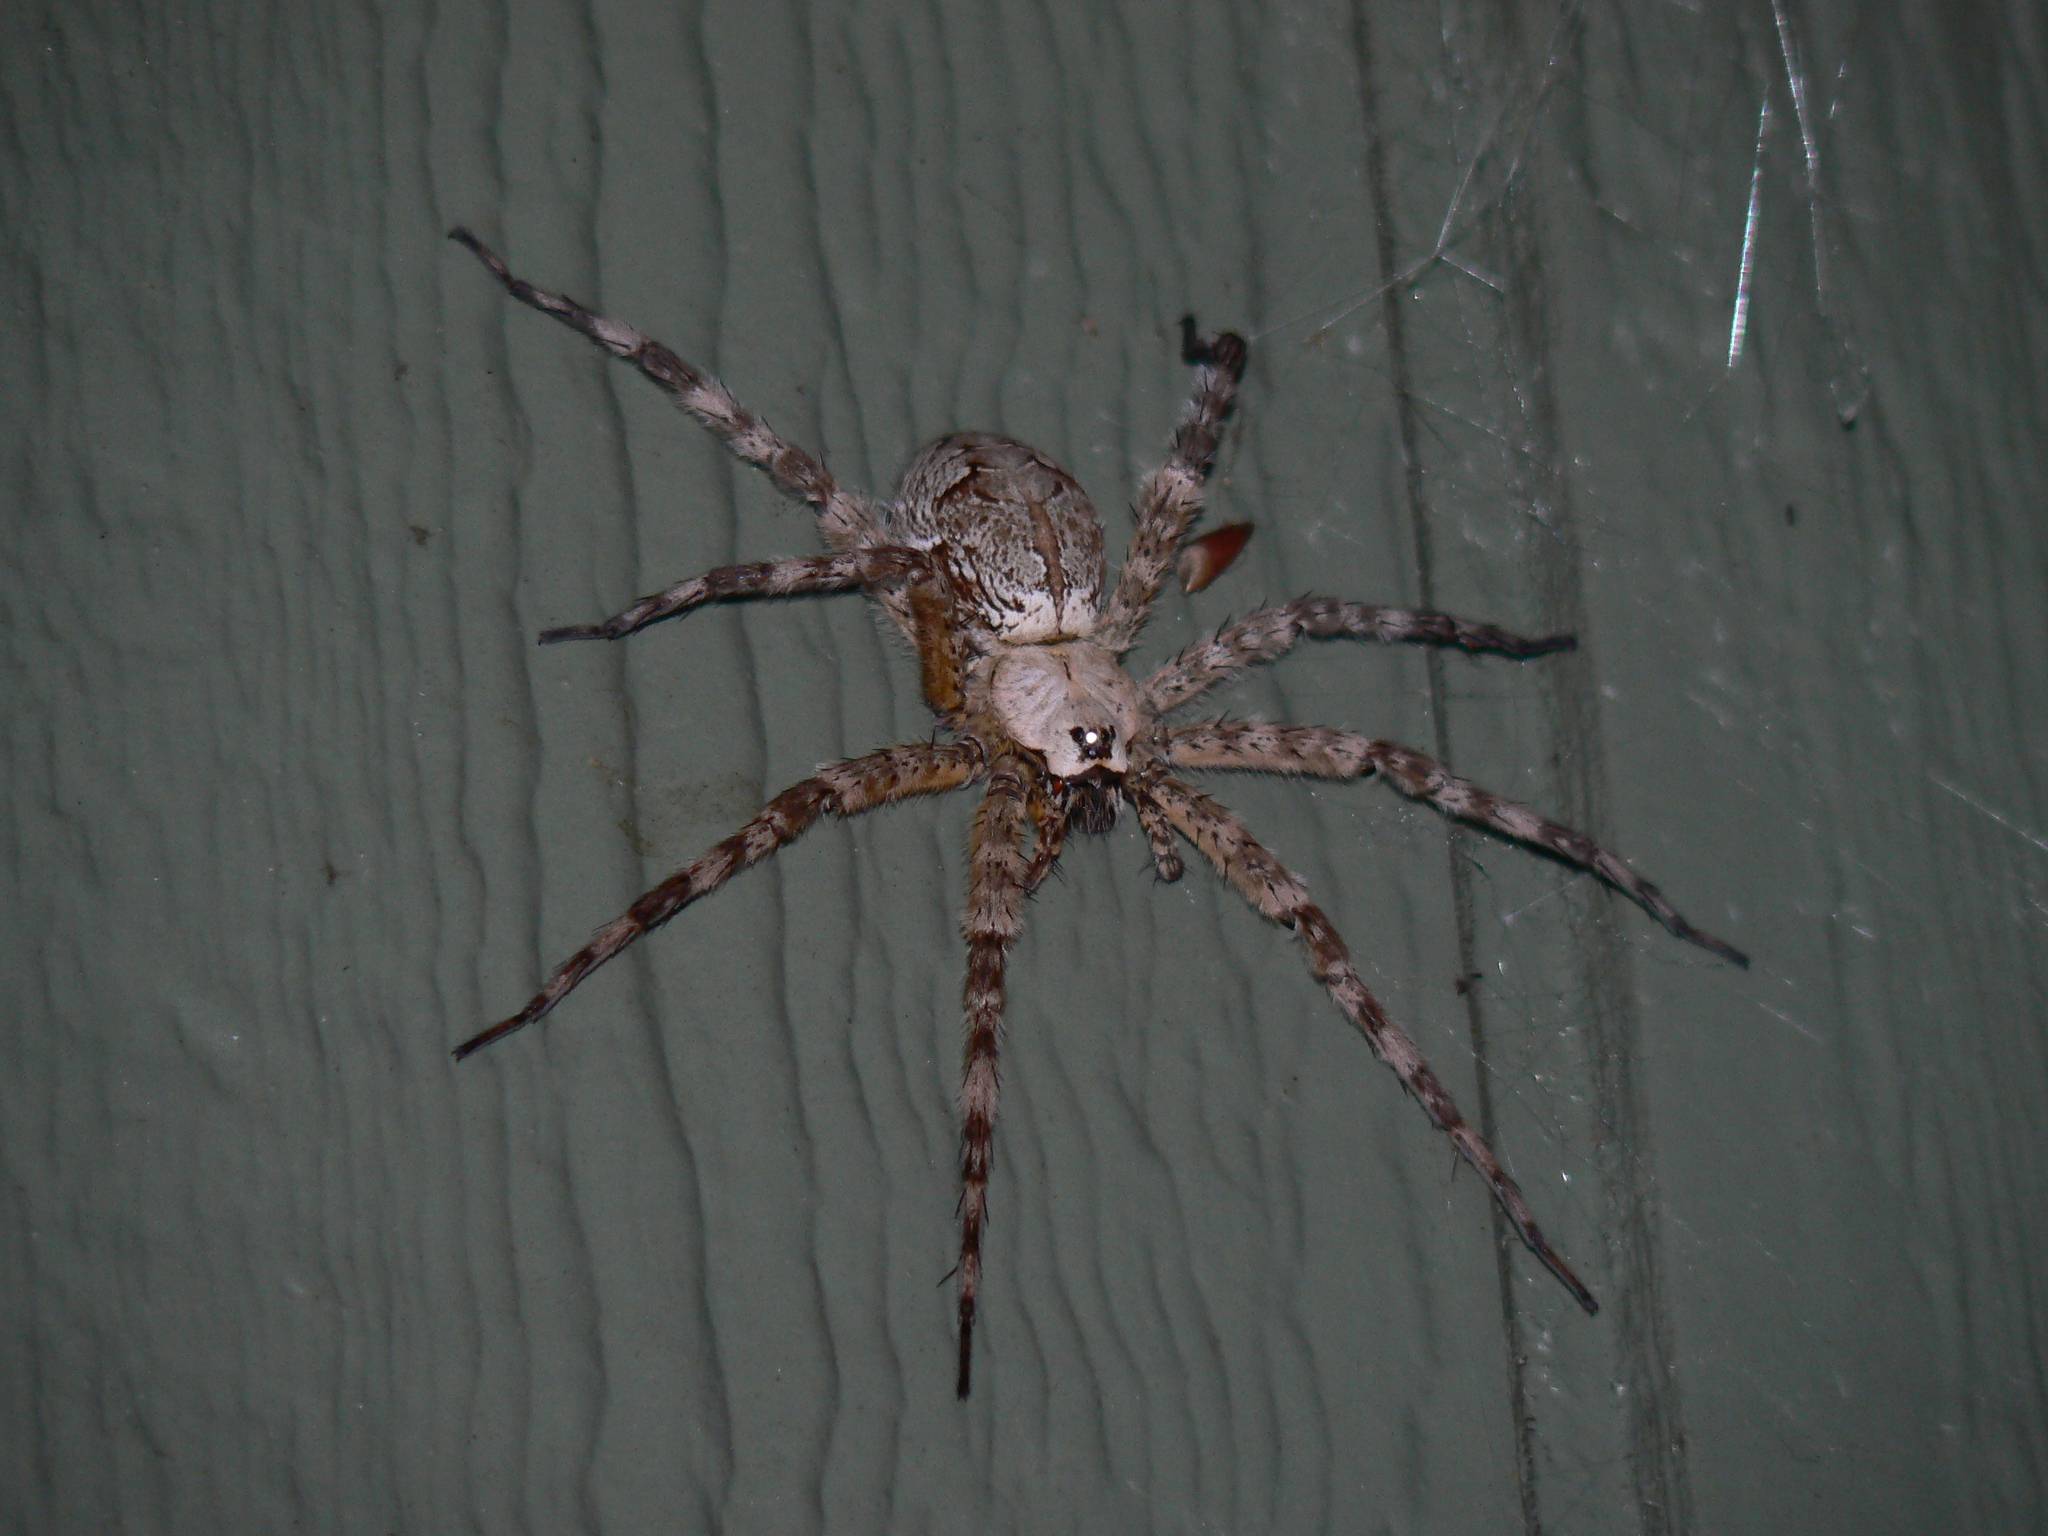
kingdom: Animalia
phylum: Arthropoda
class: Arachnida
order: Araneae
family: Pisauridae
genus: Dolomedes
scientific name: Dolomedes albineus
